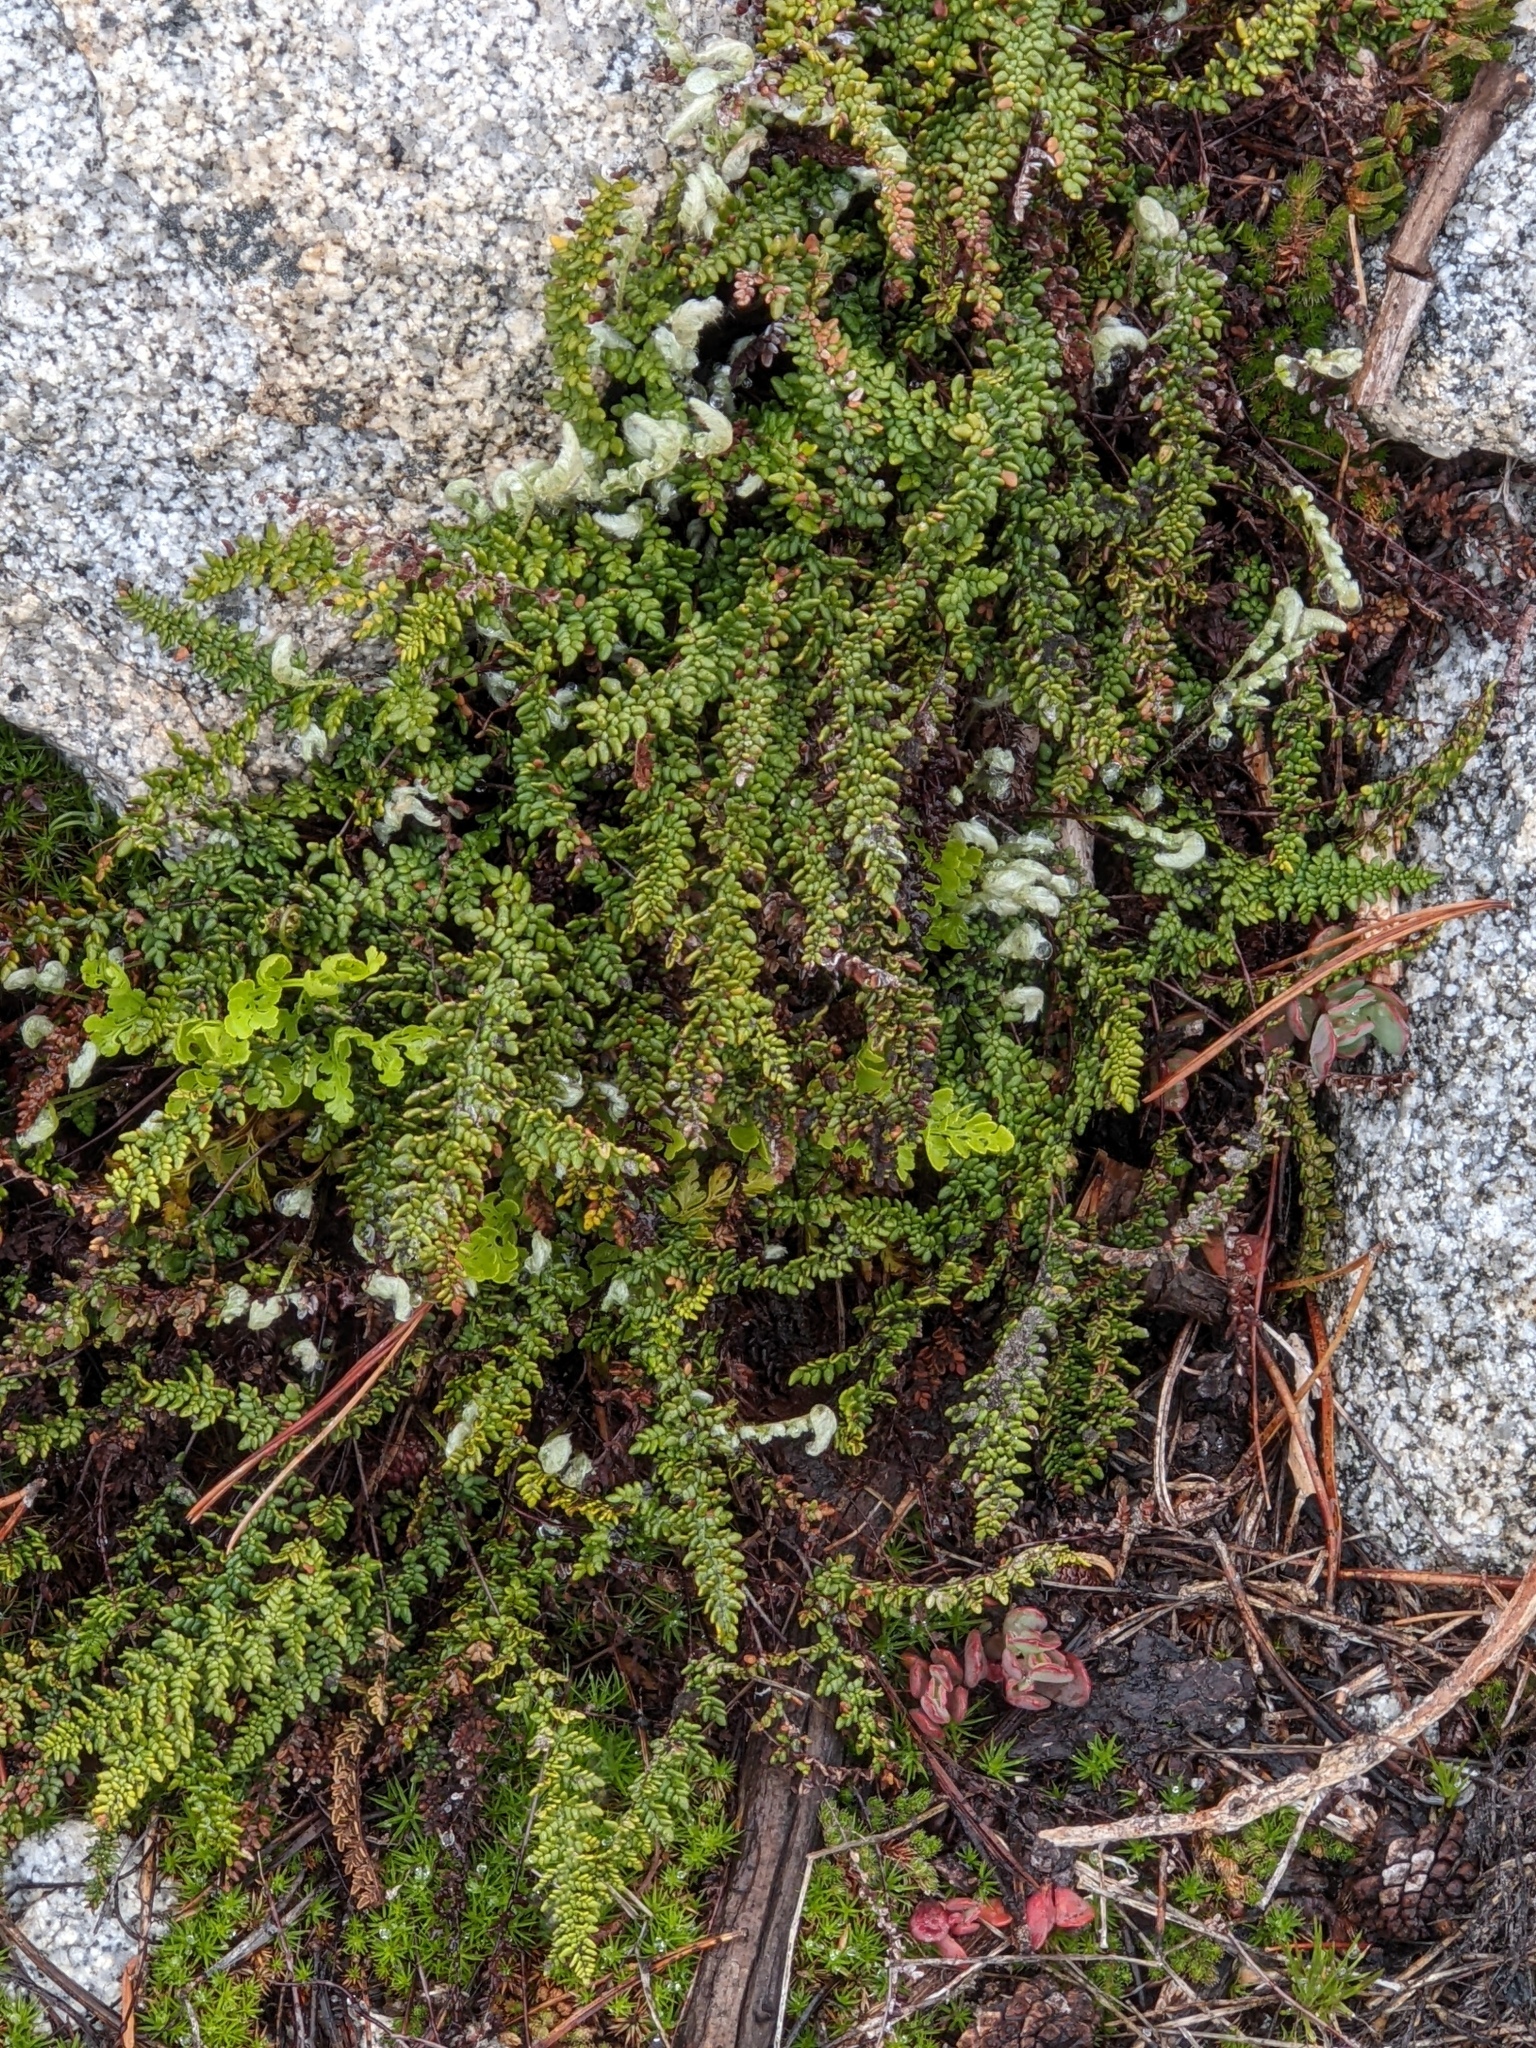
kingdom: Plantae
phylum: Tracheophyta
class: Polypodiopsida
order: Polypodiales
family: Pteridaceae
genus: Myriopteris
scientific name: Myriopteris gracillima
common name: Lace fern
